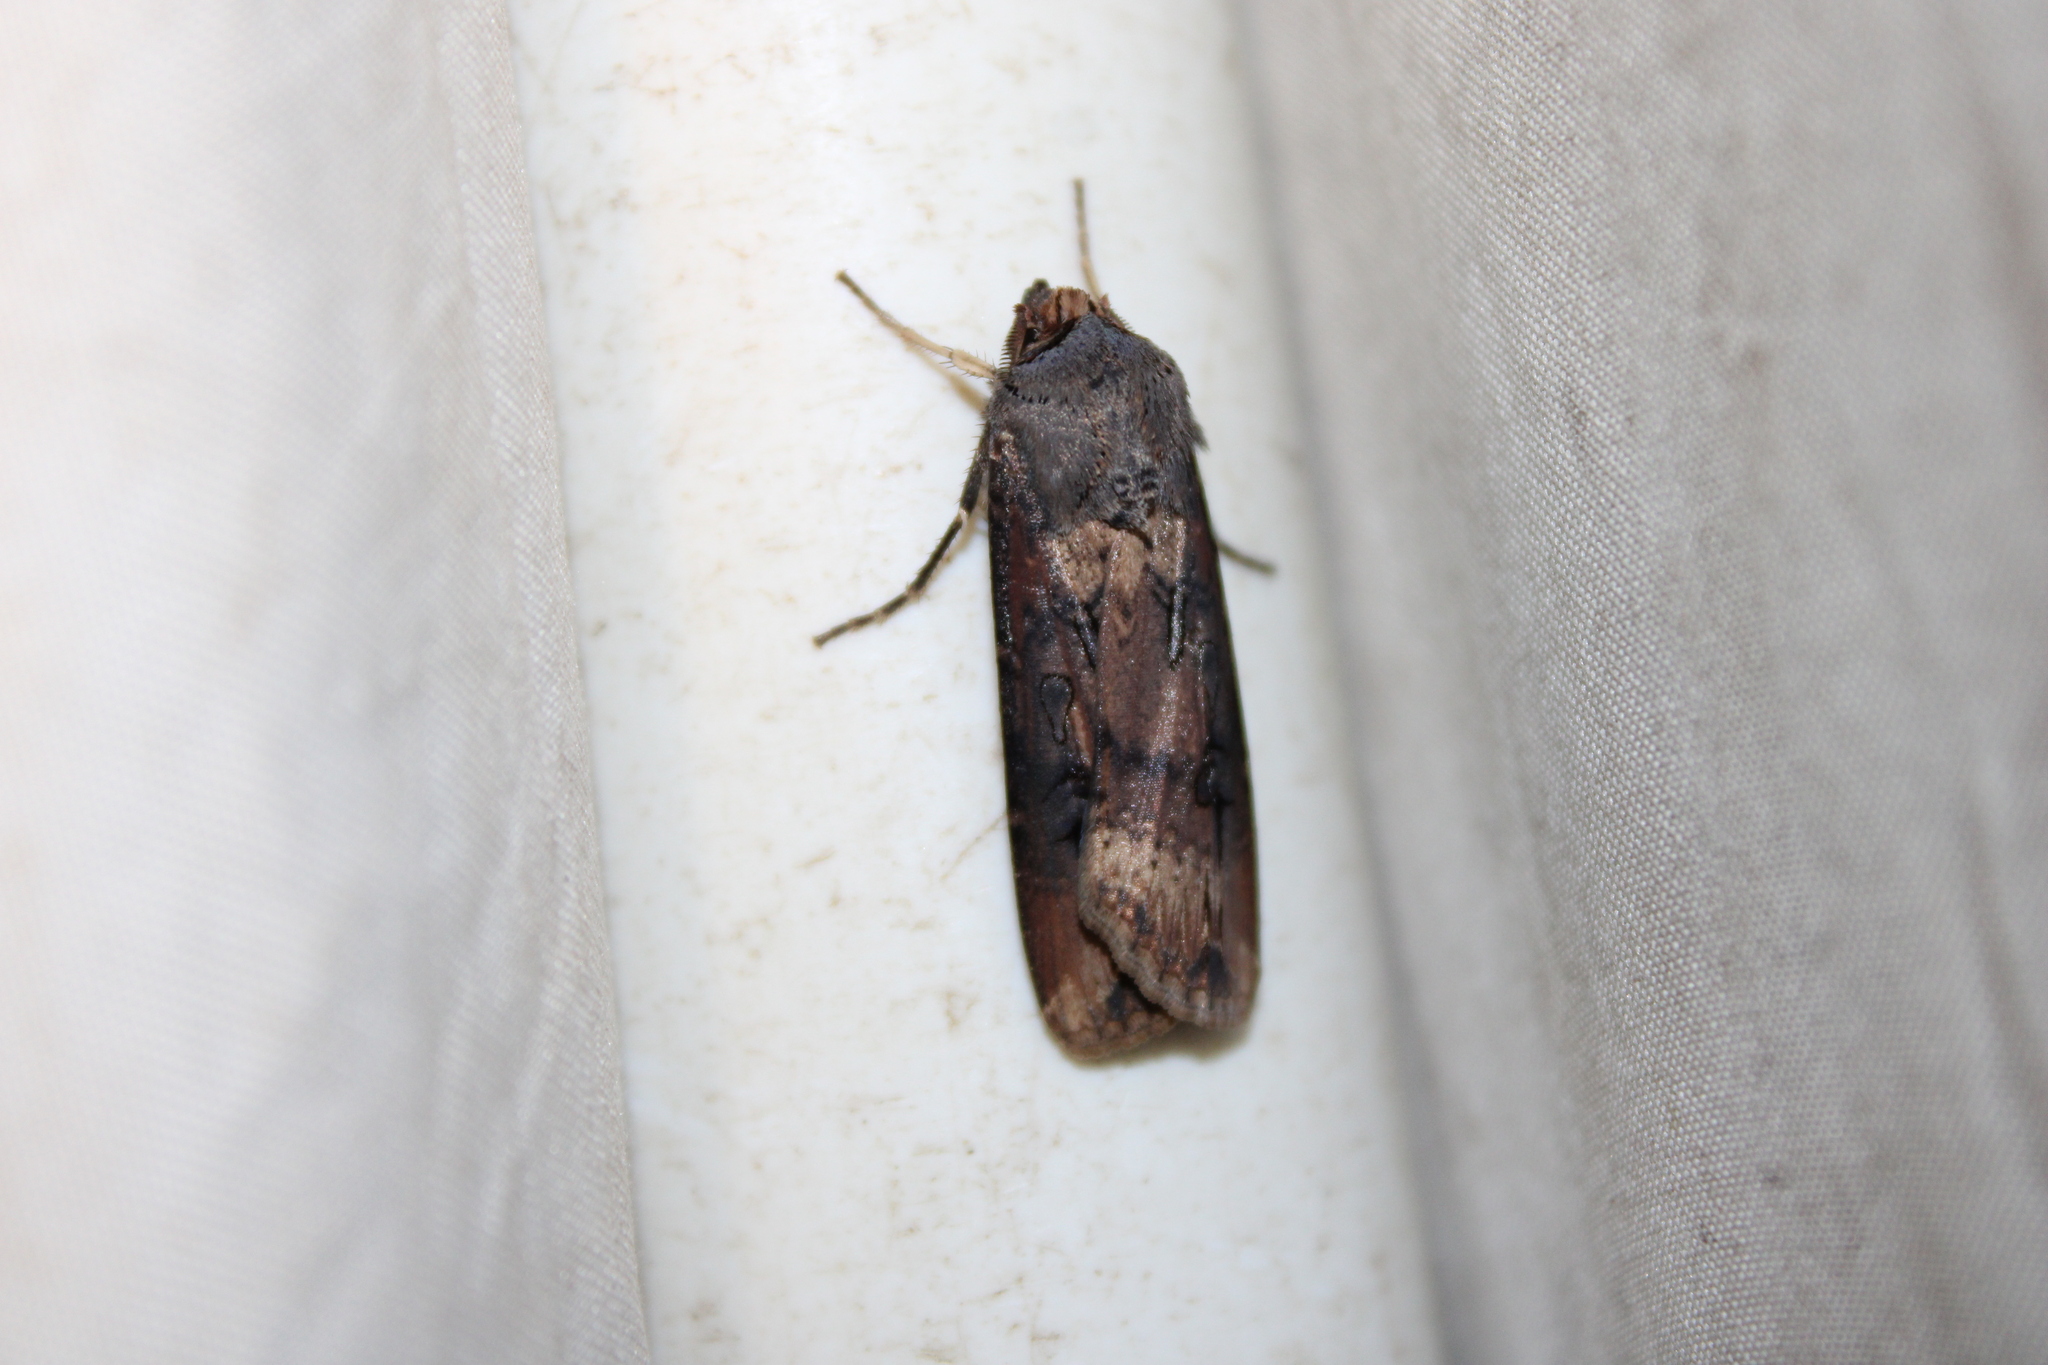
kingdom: Animalia
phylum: Arthropoda
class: Insecta
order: Lepidoptera
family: Noctuidae
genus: Agrotis
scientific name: Agrotis ipsilon
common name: Dark sword-grass
